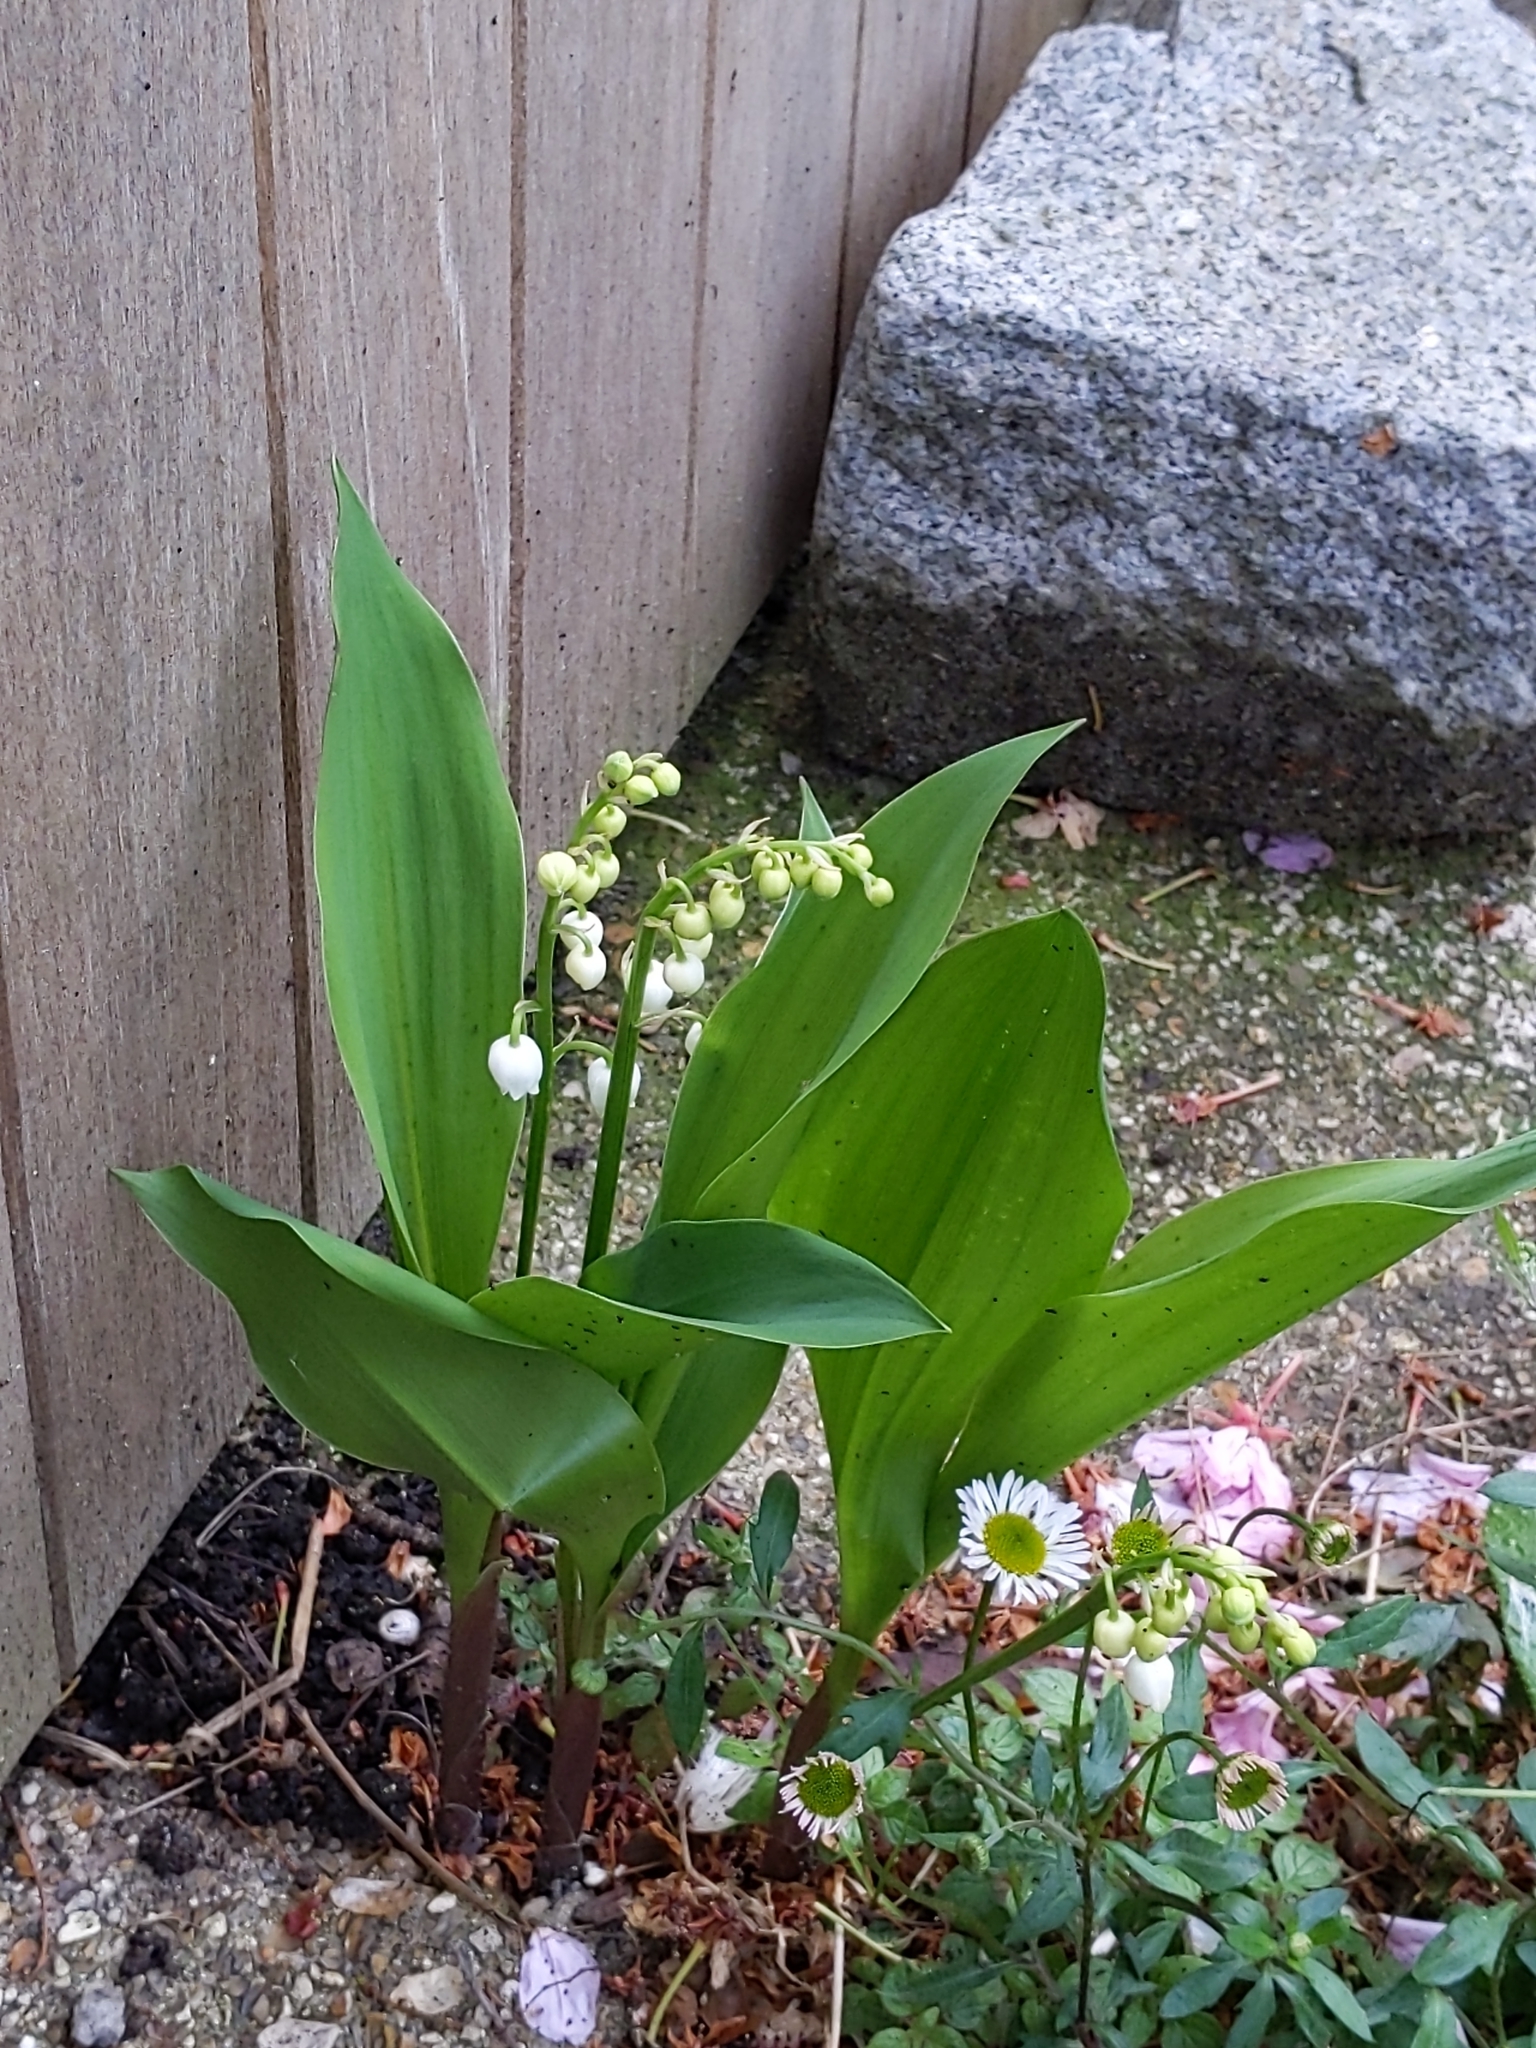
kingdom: Plantae
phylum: Tracheophyta
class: Liliopsida
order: Asparagales
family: Asparagaceae
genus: Convallaria
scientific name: Convallaria majalis
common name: Lily-of-the-valley
